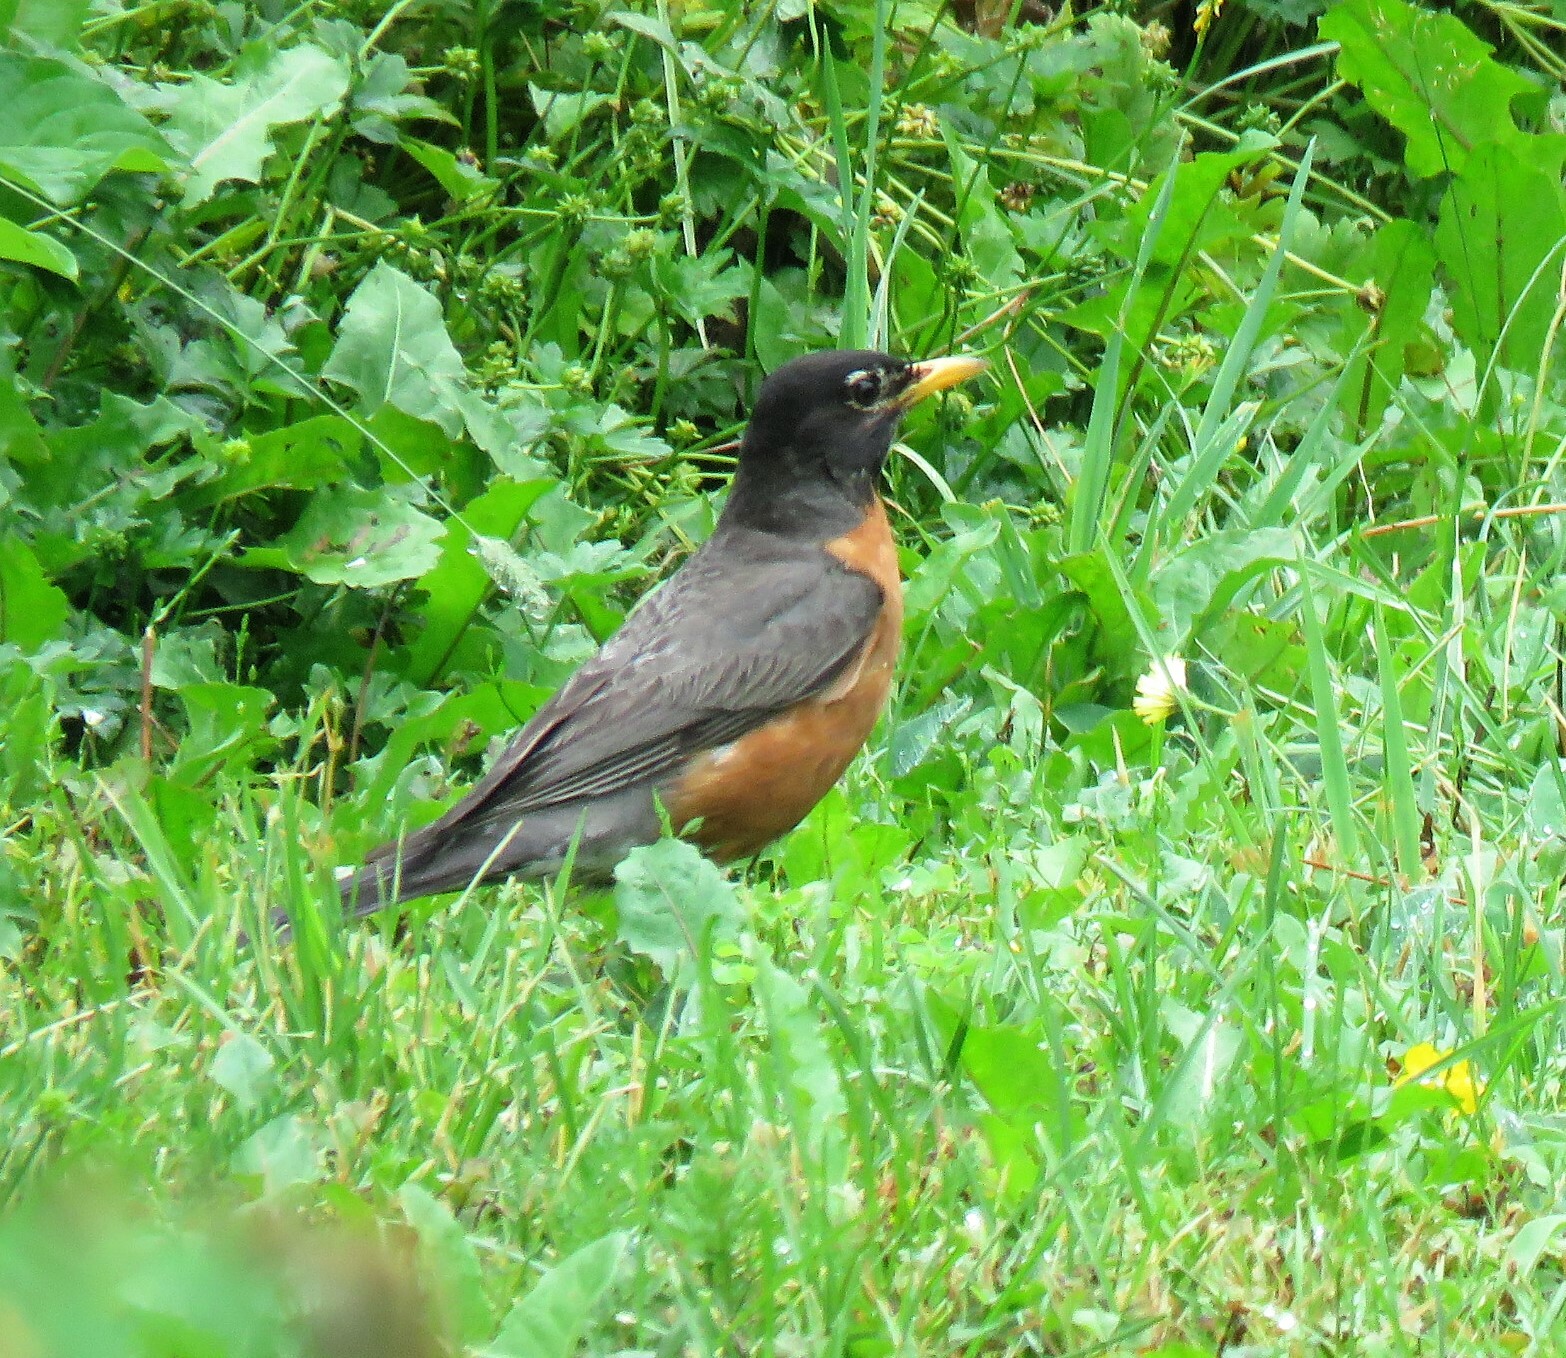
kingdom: Animalia
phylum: Chordata
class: Aves
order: Passeriformes
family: Turdidae
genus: Turdus
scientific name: Turdus migratorius
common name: American robin
